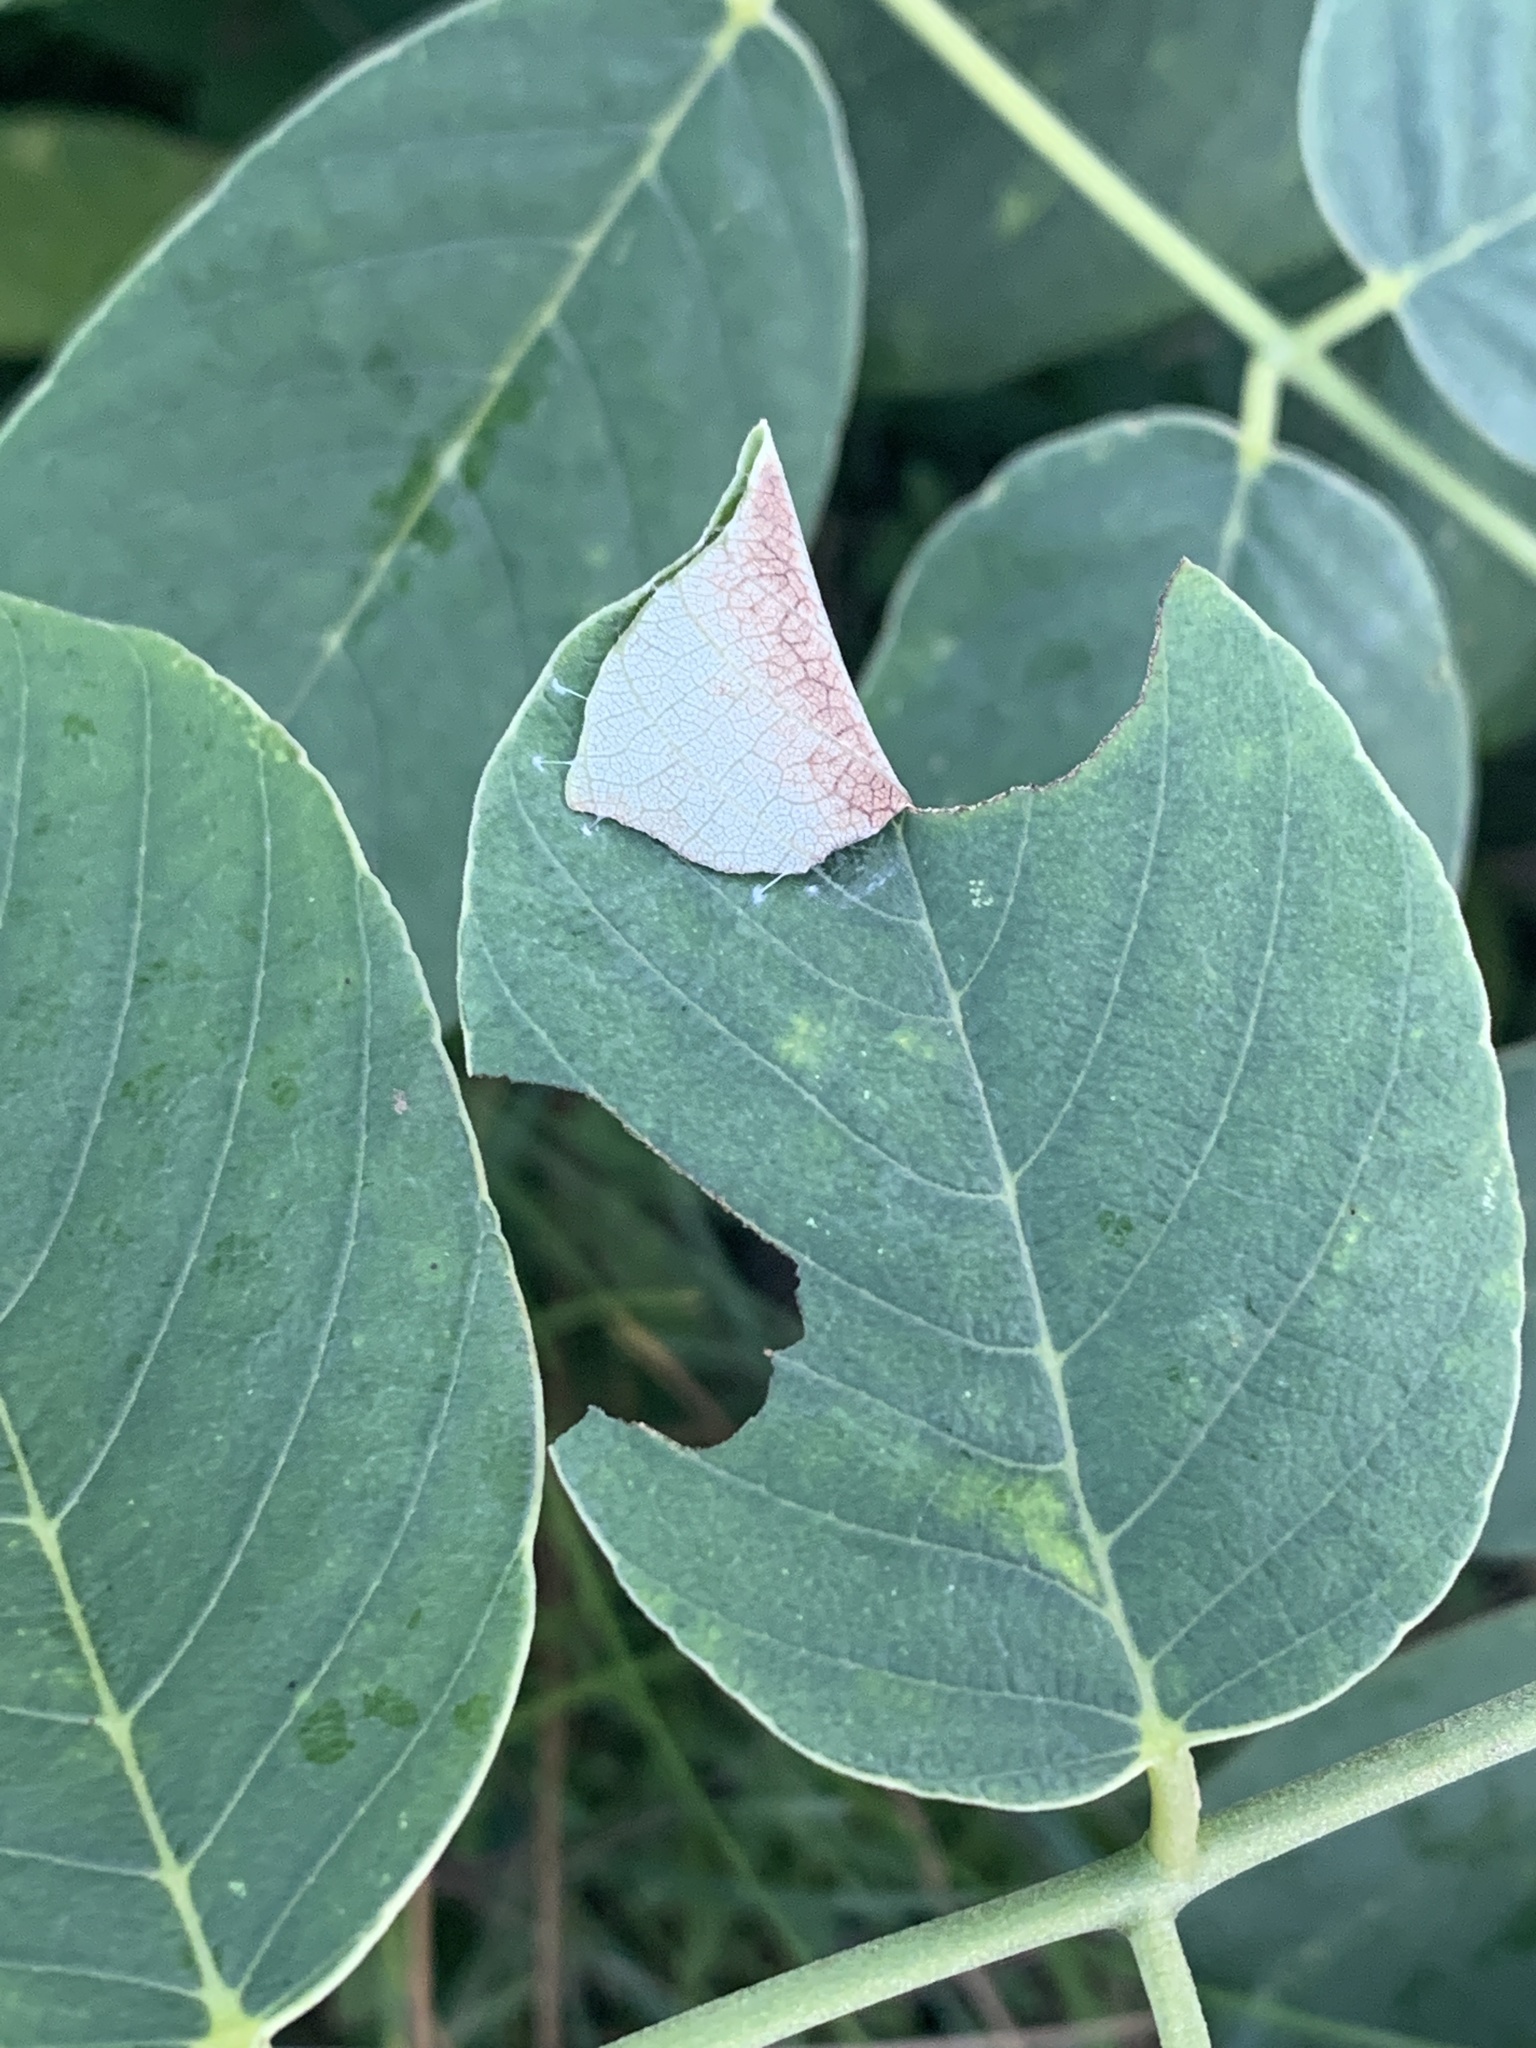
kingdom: Plantae
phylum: Tracheophyta
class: Magnoliopsida
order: Fabales
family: Fabaceae
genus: Piscidia
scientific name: Piscidia piscipula
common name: Florida fishpoison tree
